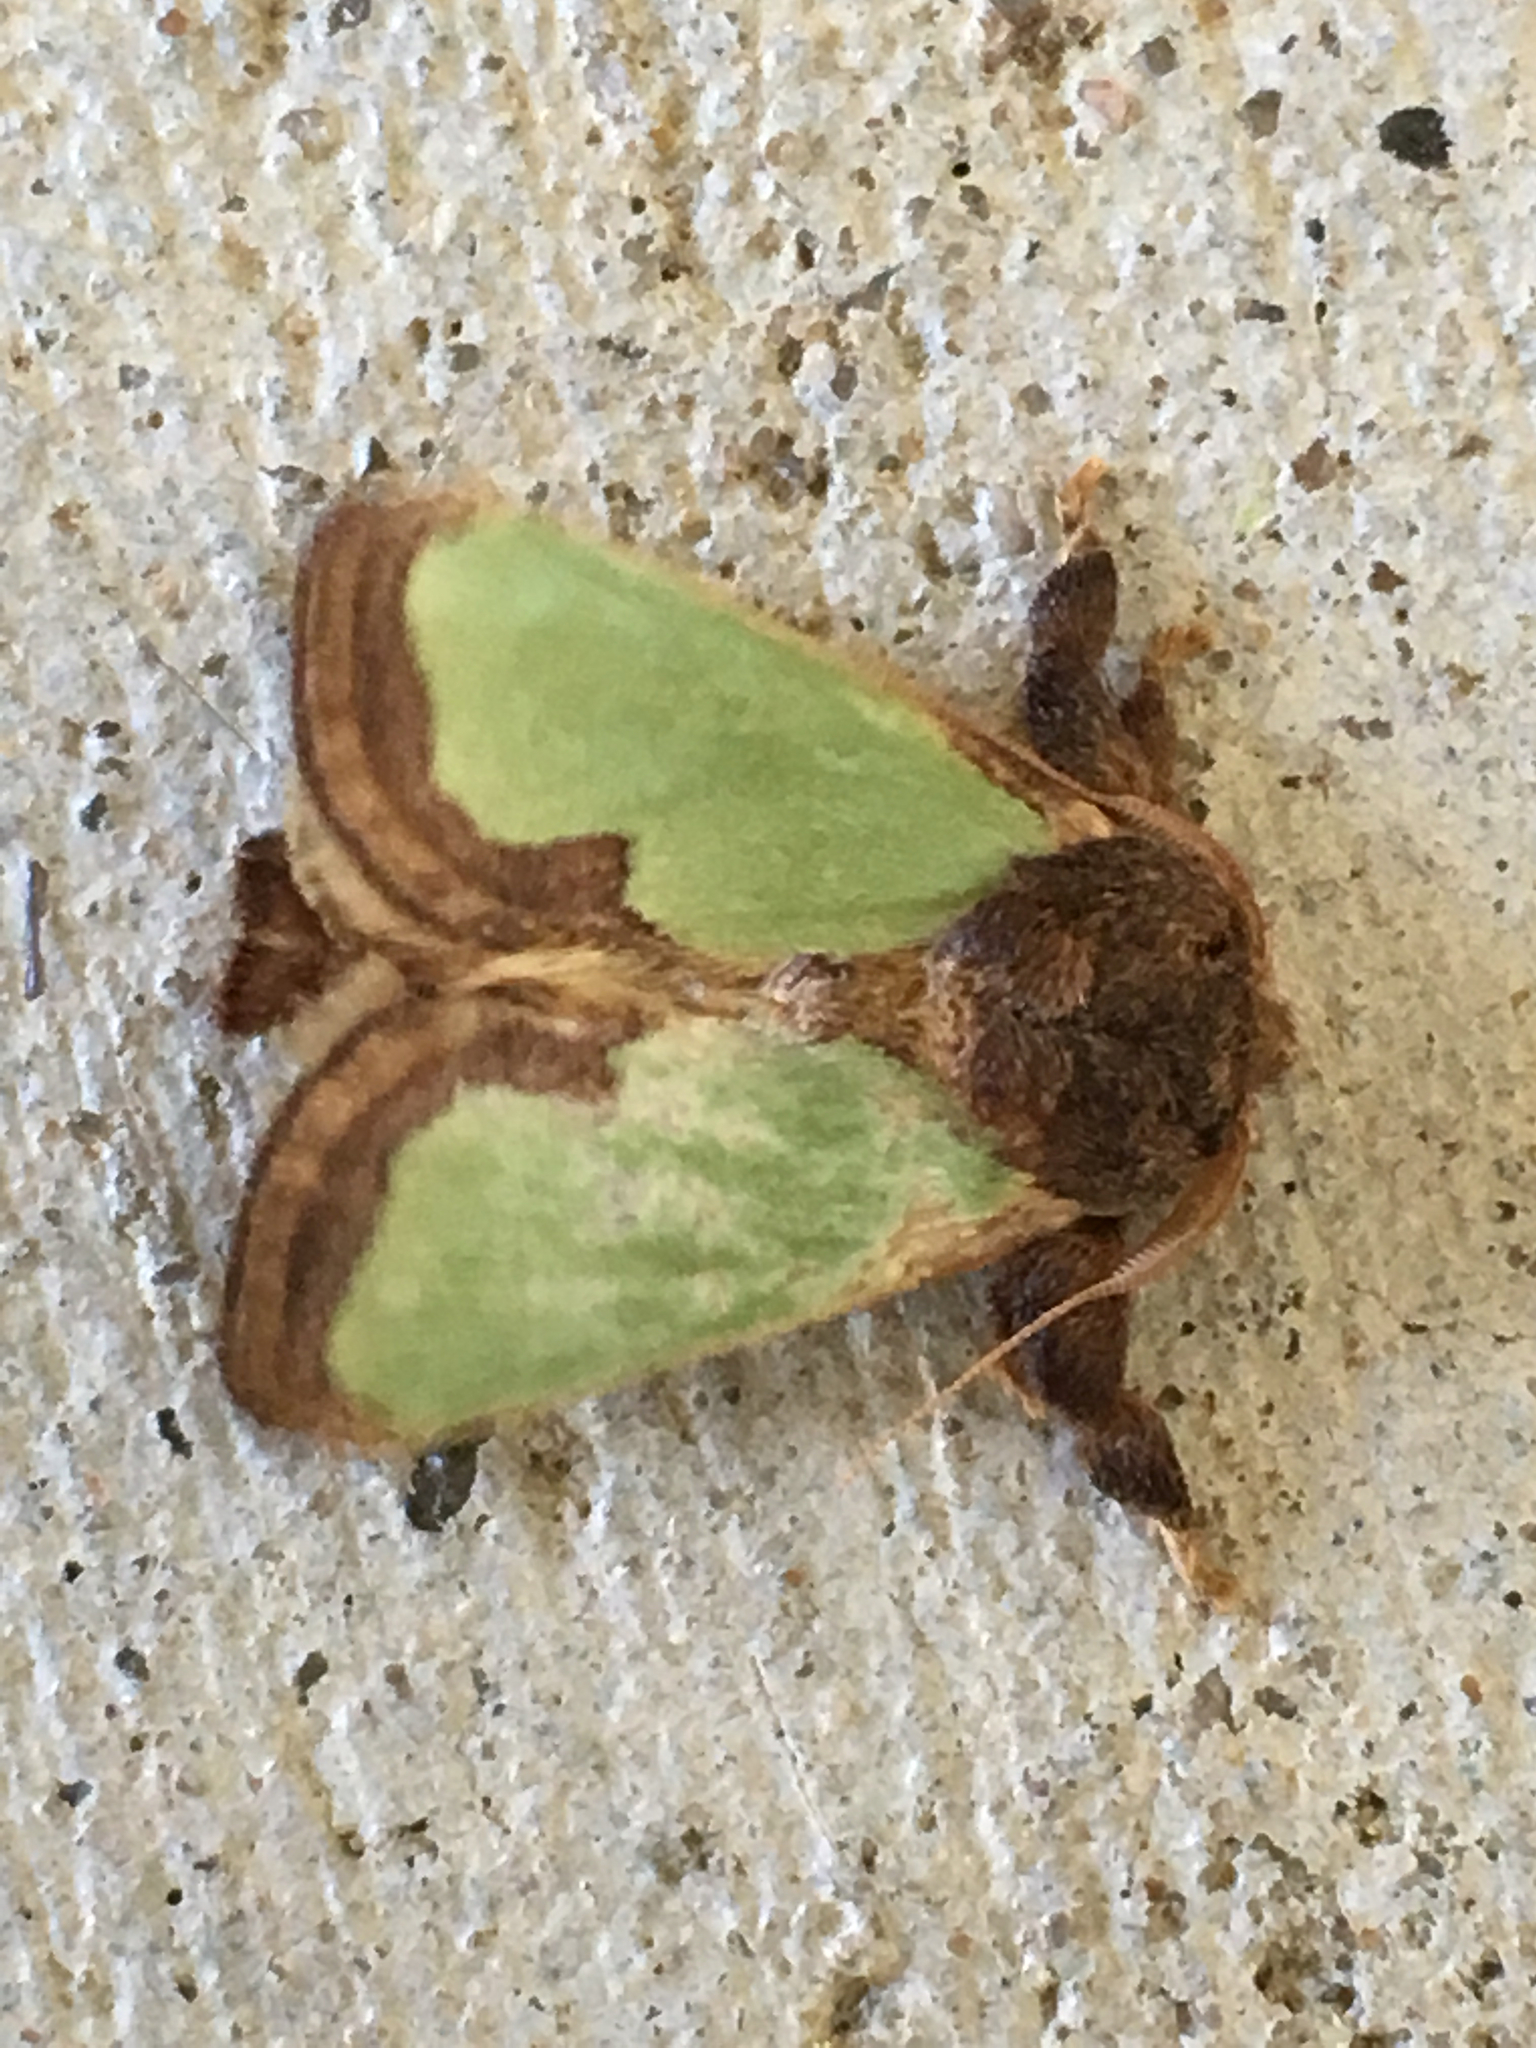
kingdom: Animalia
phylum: Arthropoda
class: Insecta
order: Lepidoptera
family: Limacodidae
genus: Euclea
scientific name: Euclea incisa
